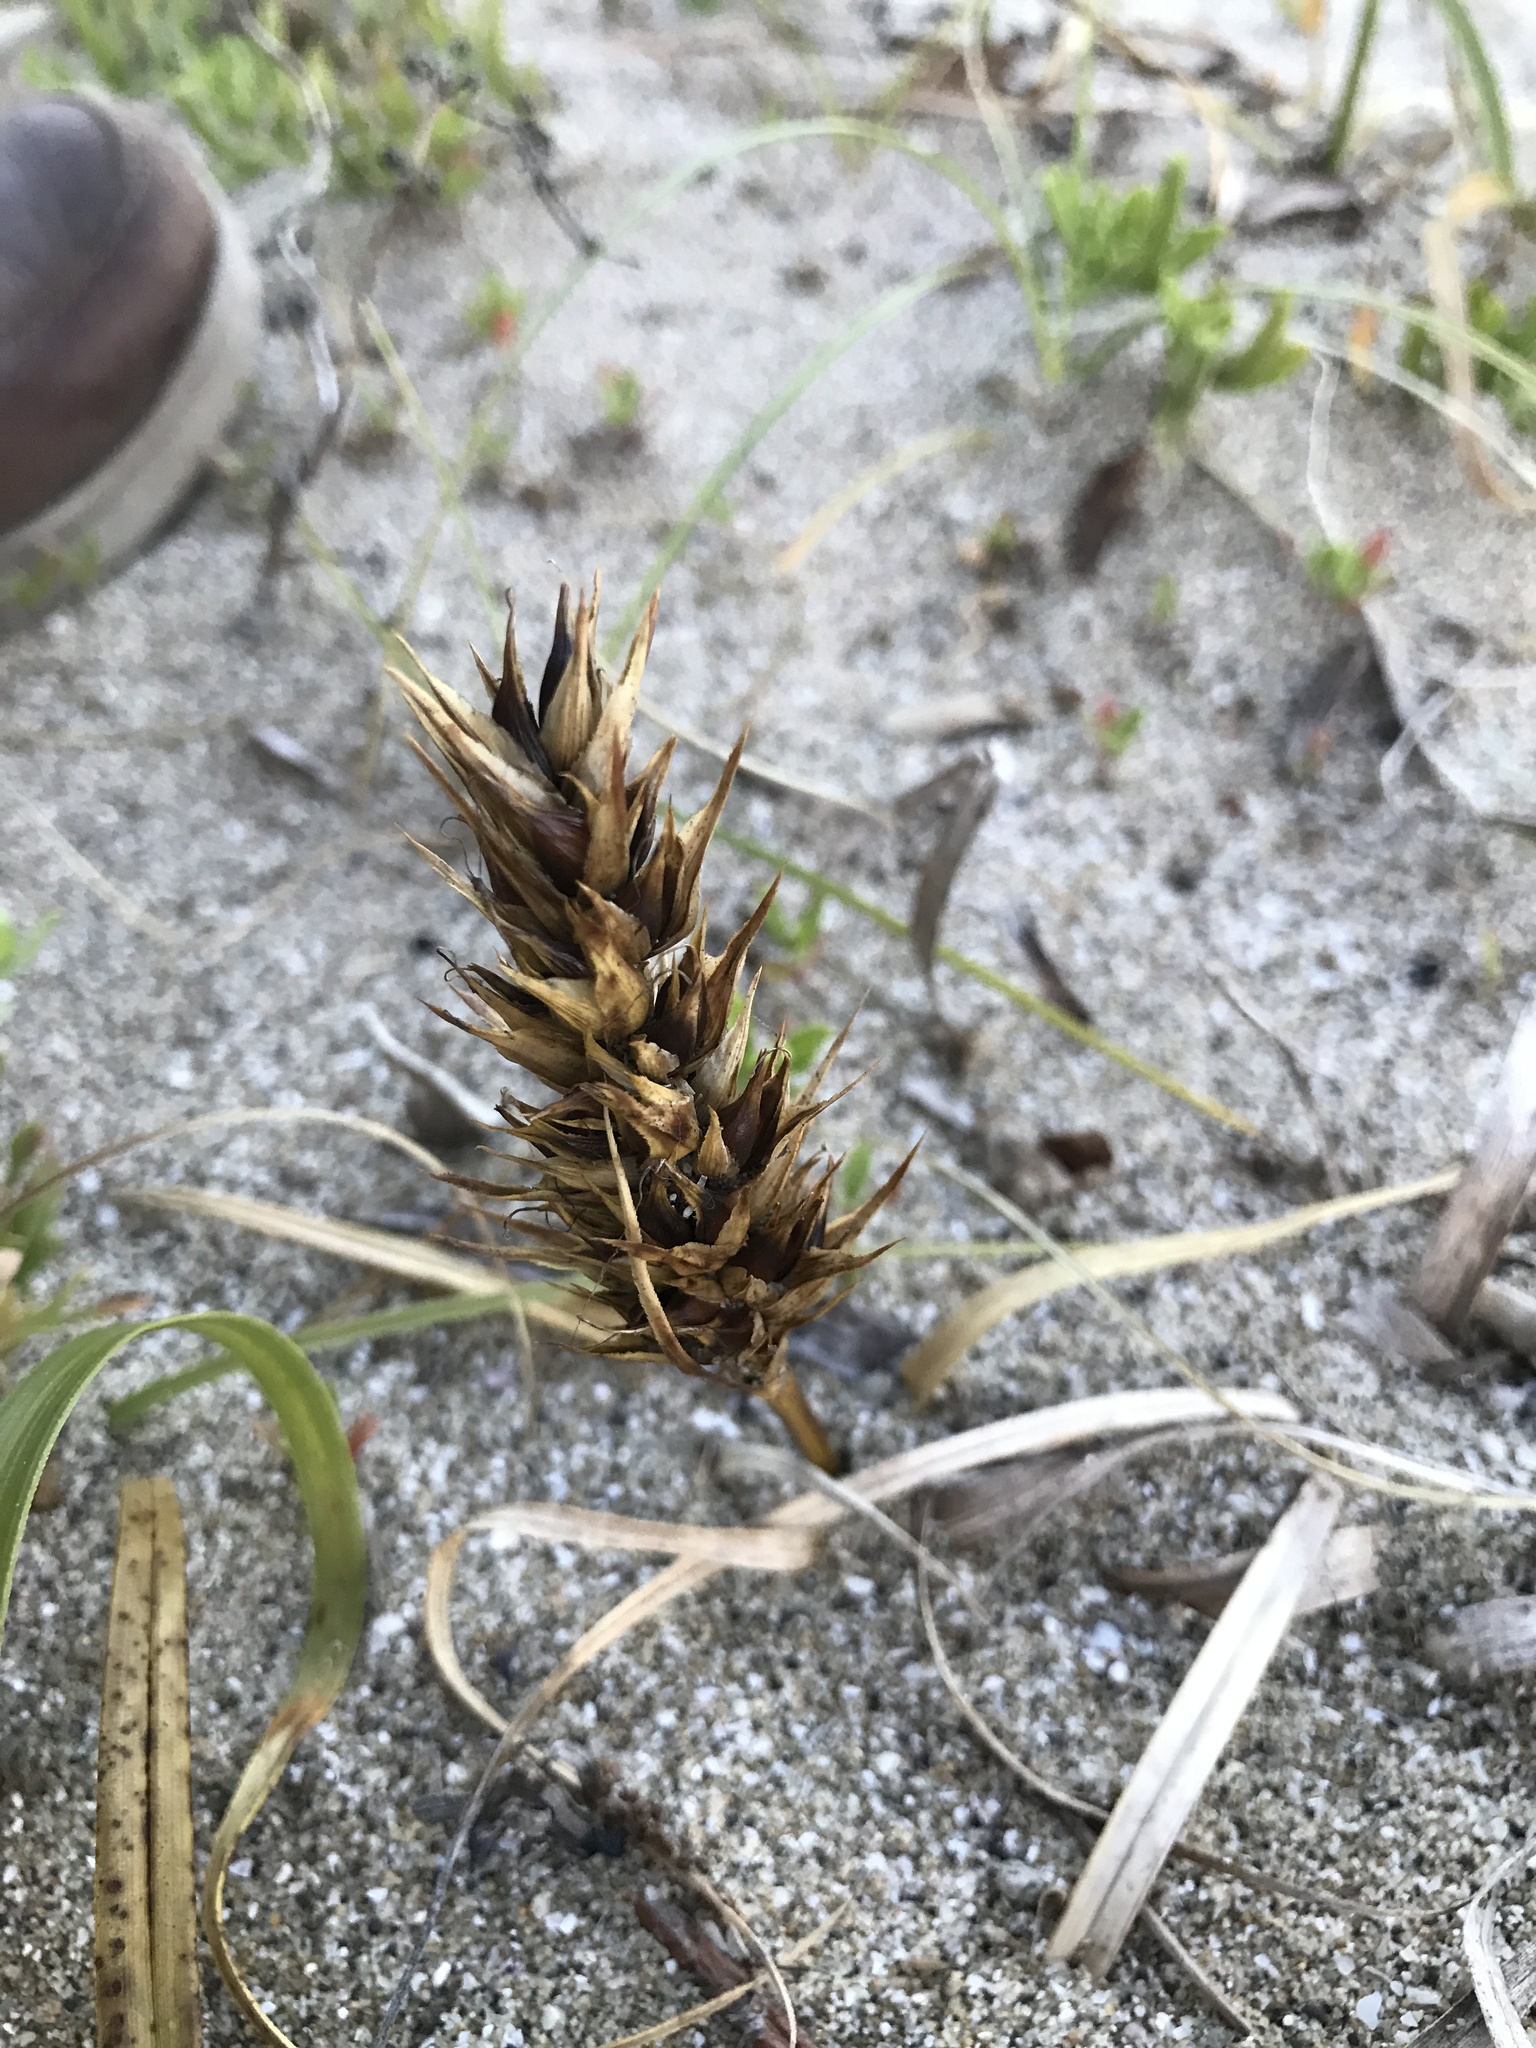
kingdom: Plantae
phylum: Tracheophyta
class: Liliopsida
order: Poales
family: Cyperaceae
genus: Carex
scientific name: Carex kobomugi
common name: Japanese sedge
